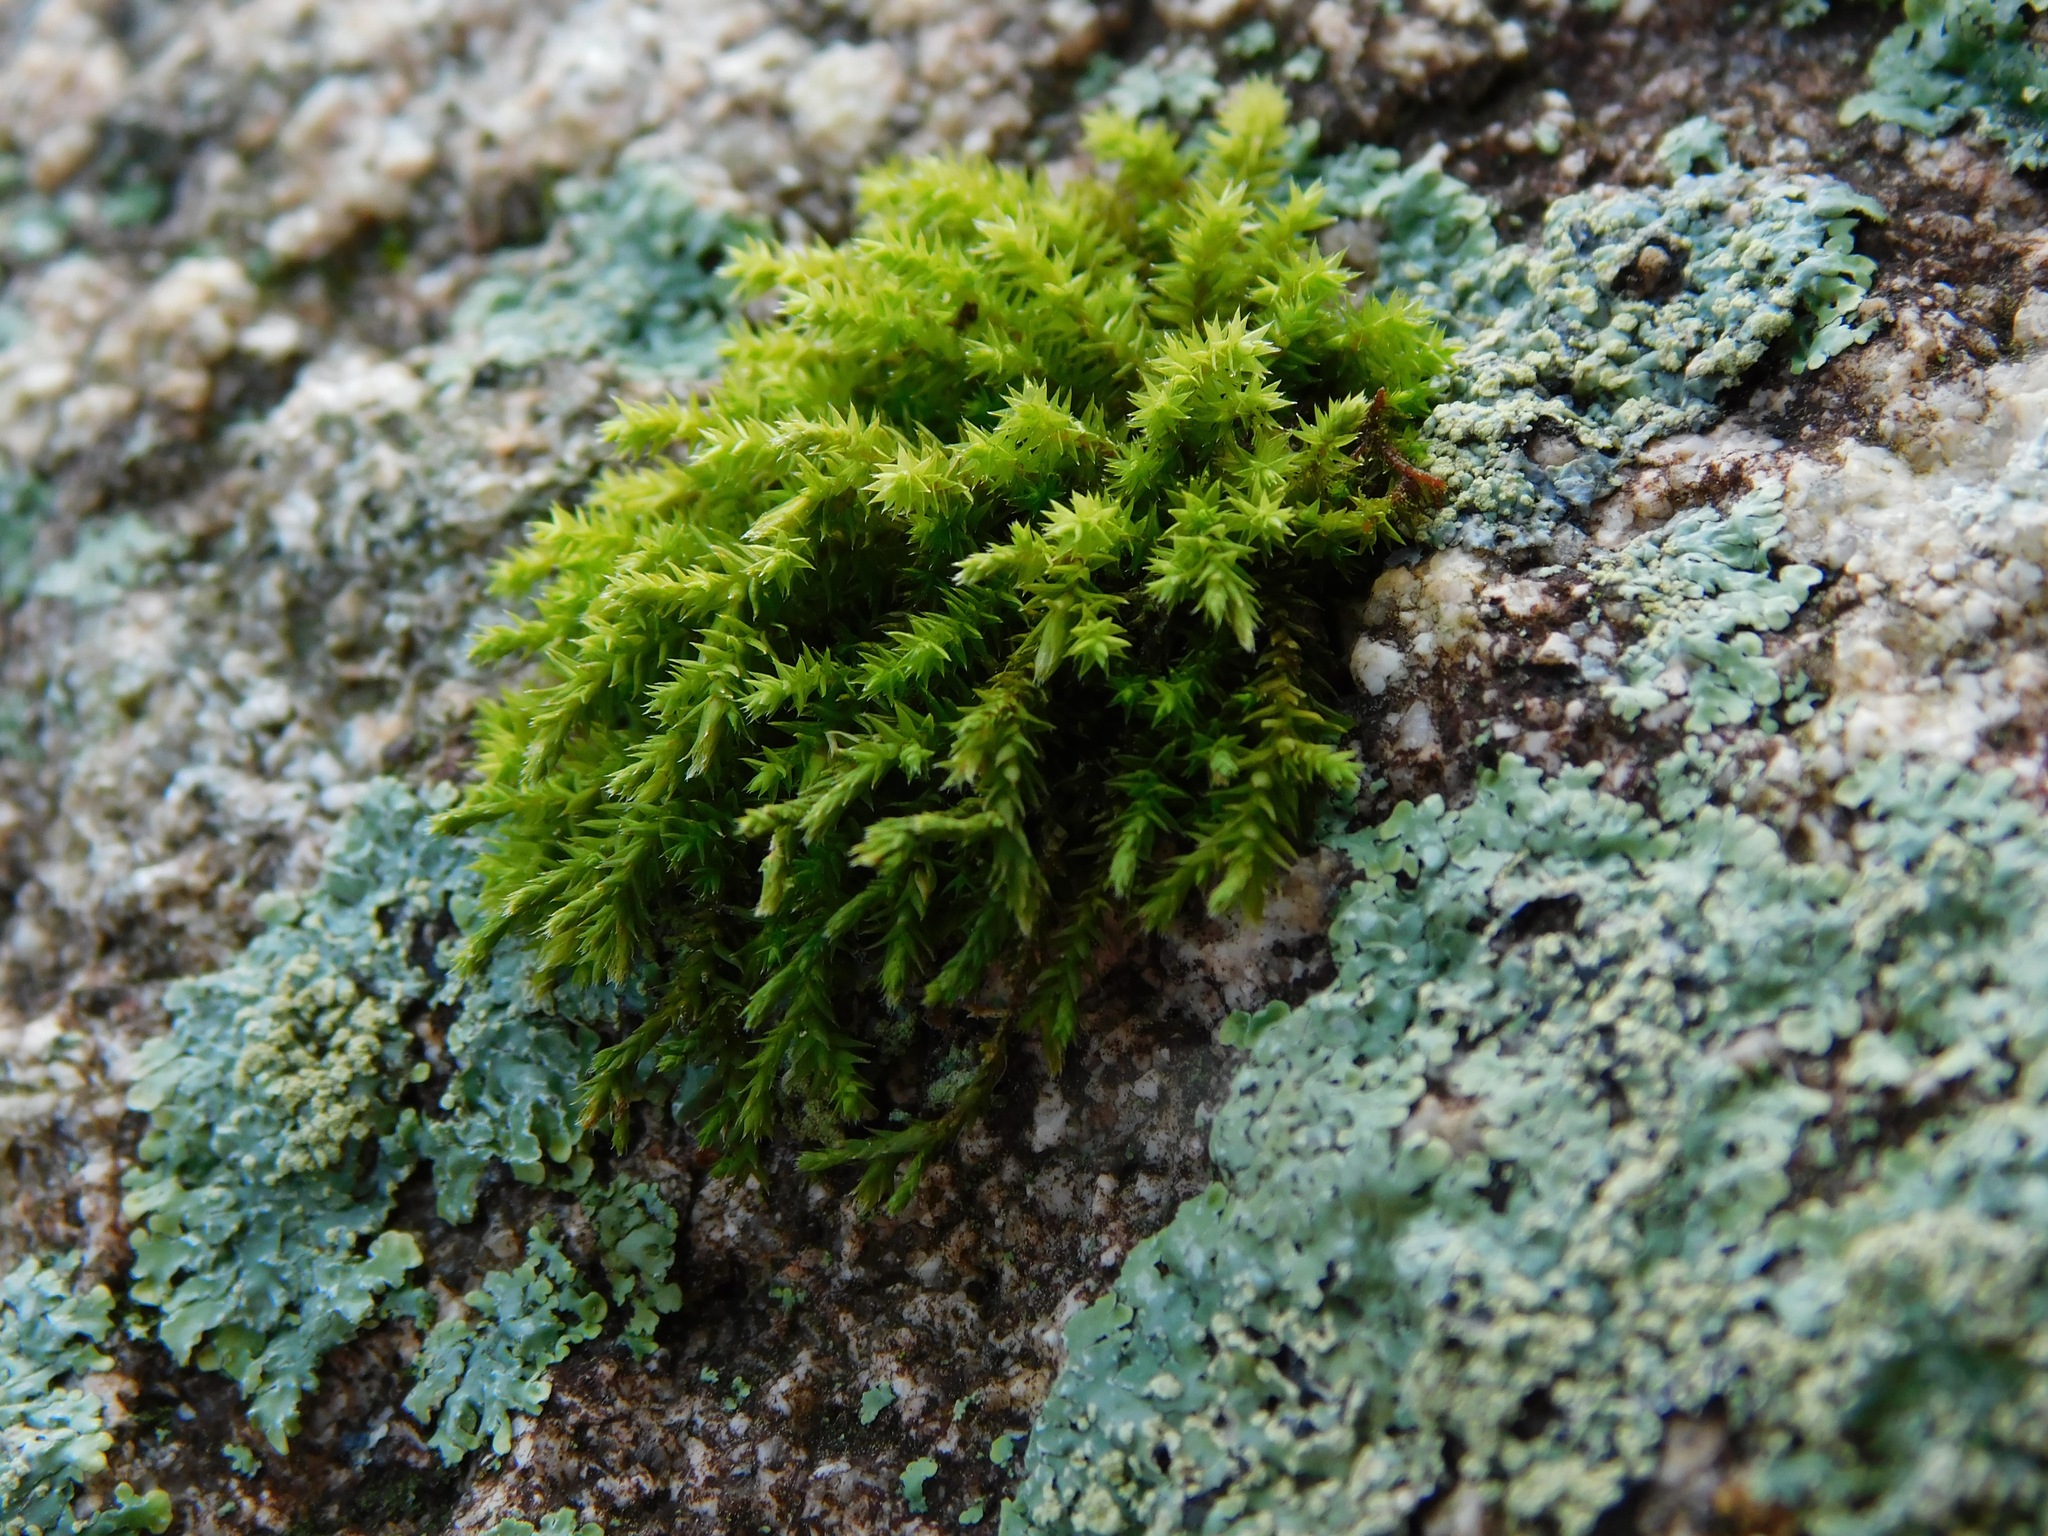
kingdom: Plantae
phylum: Bryophyta
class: Bryopsida
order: Hedwigiales
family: Hedwigiaceae
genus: Hedwigia
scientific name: Hedwigia ciliata
